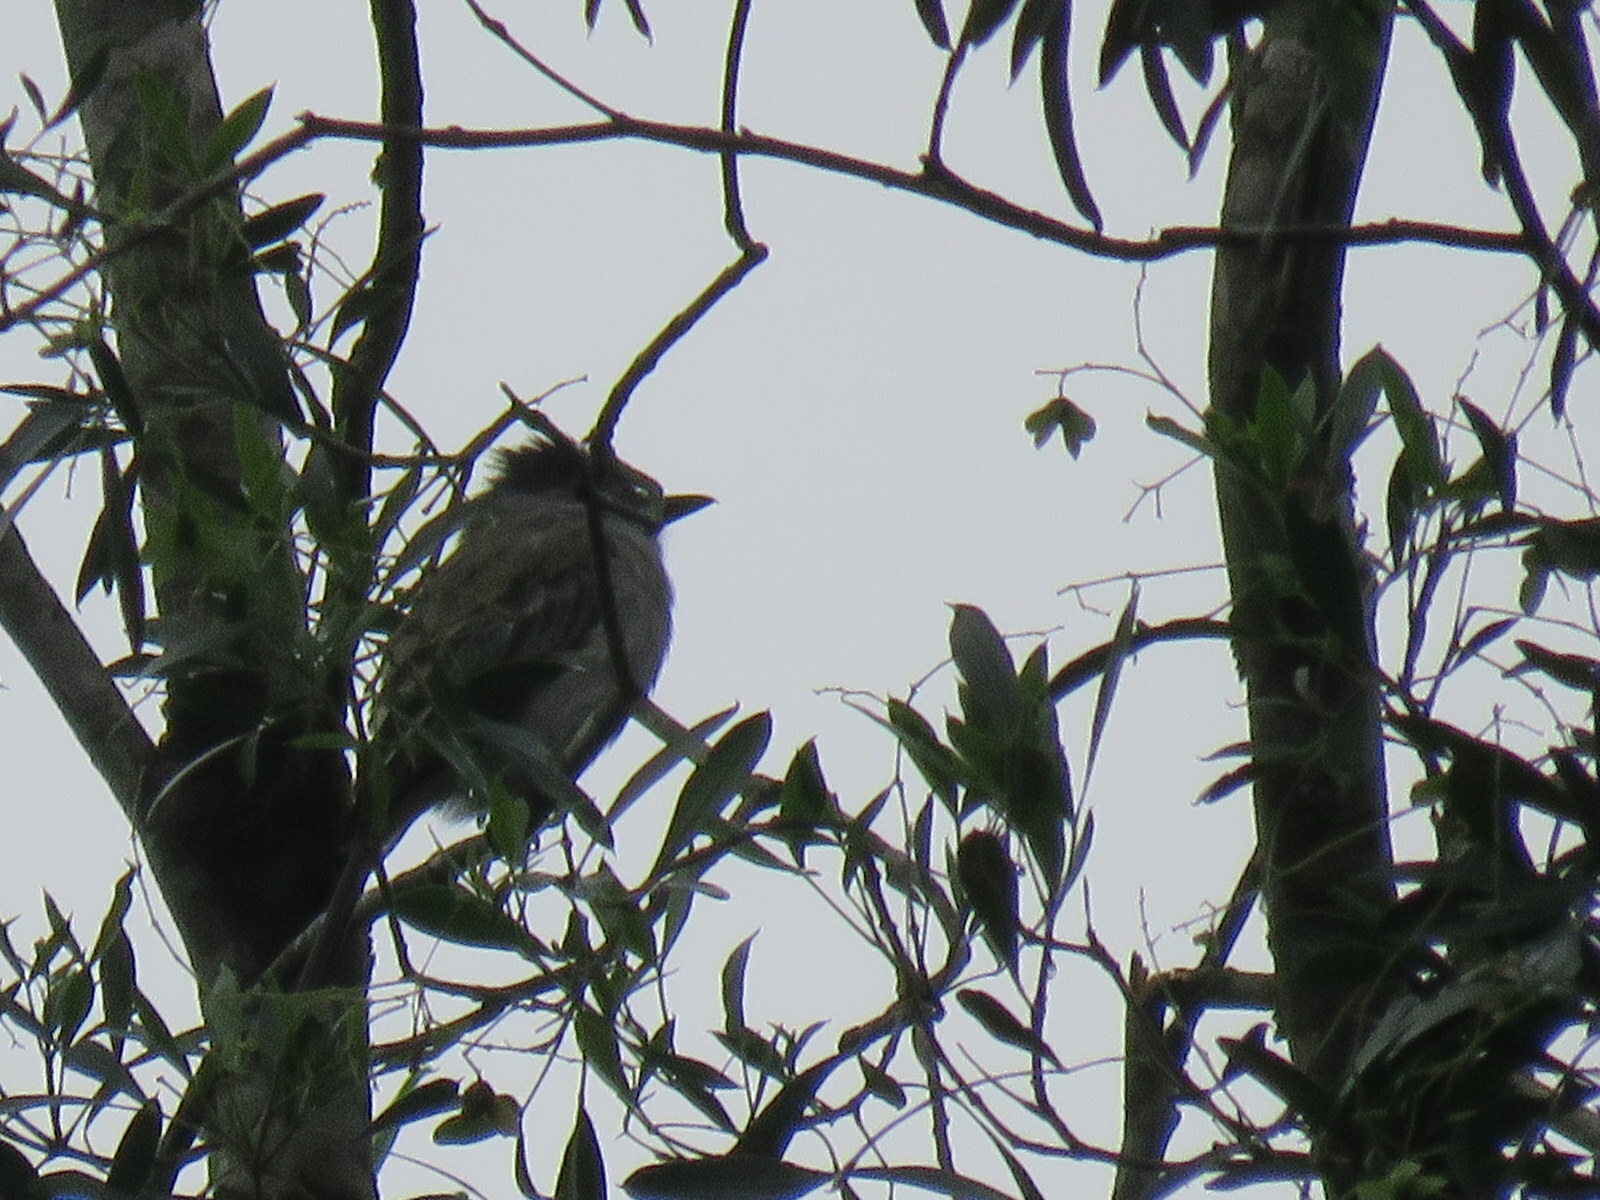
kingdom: Animalia
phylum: Chordata
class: Aves
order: Passeriformes
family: Tyrannidae
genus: Sirystes
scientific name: Sirystes sibilator
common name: Sirystes
